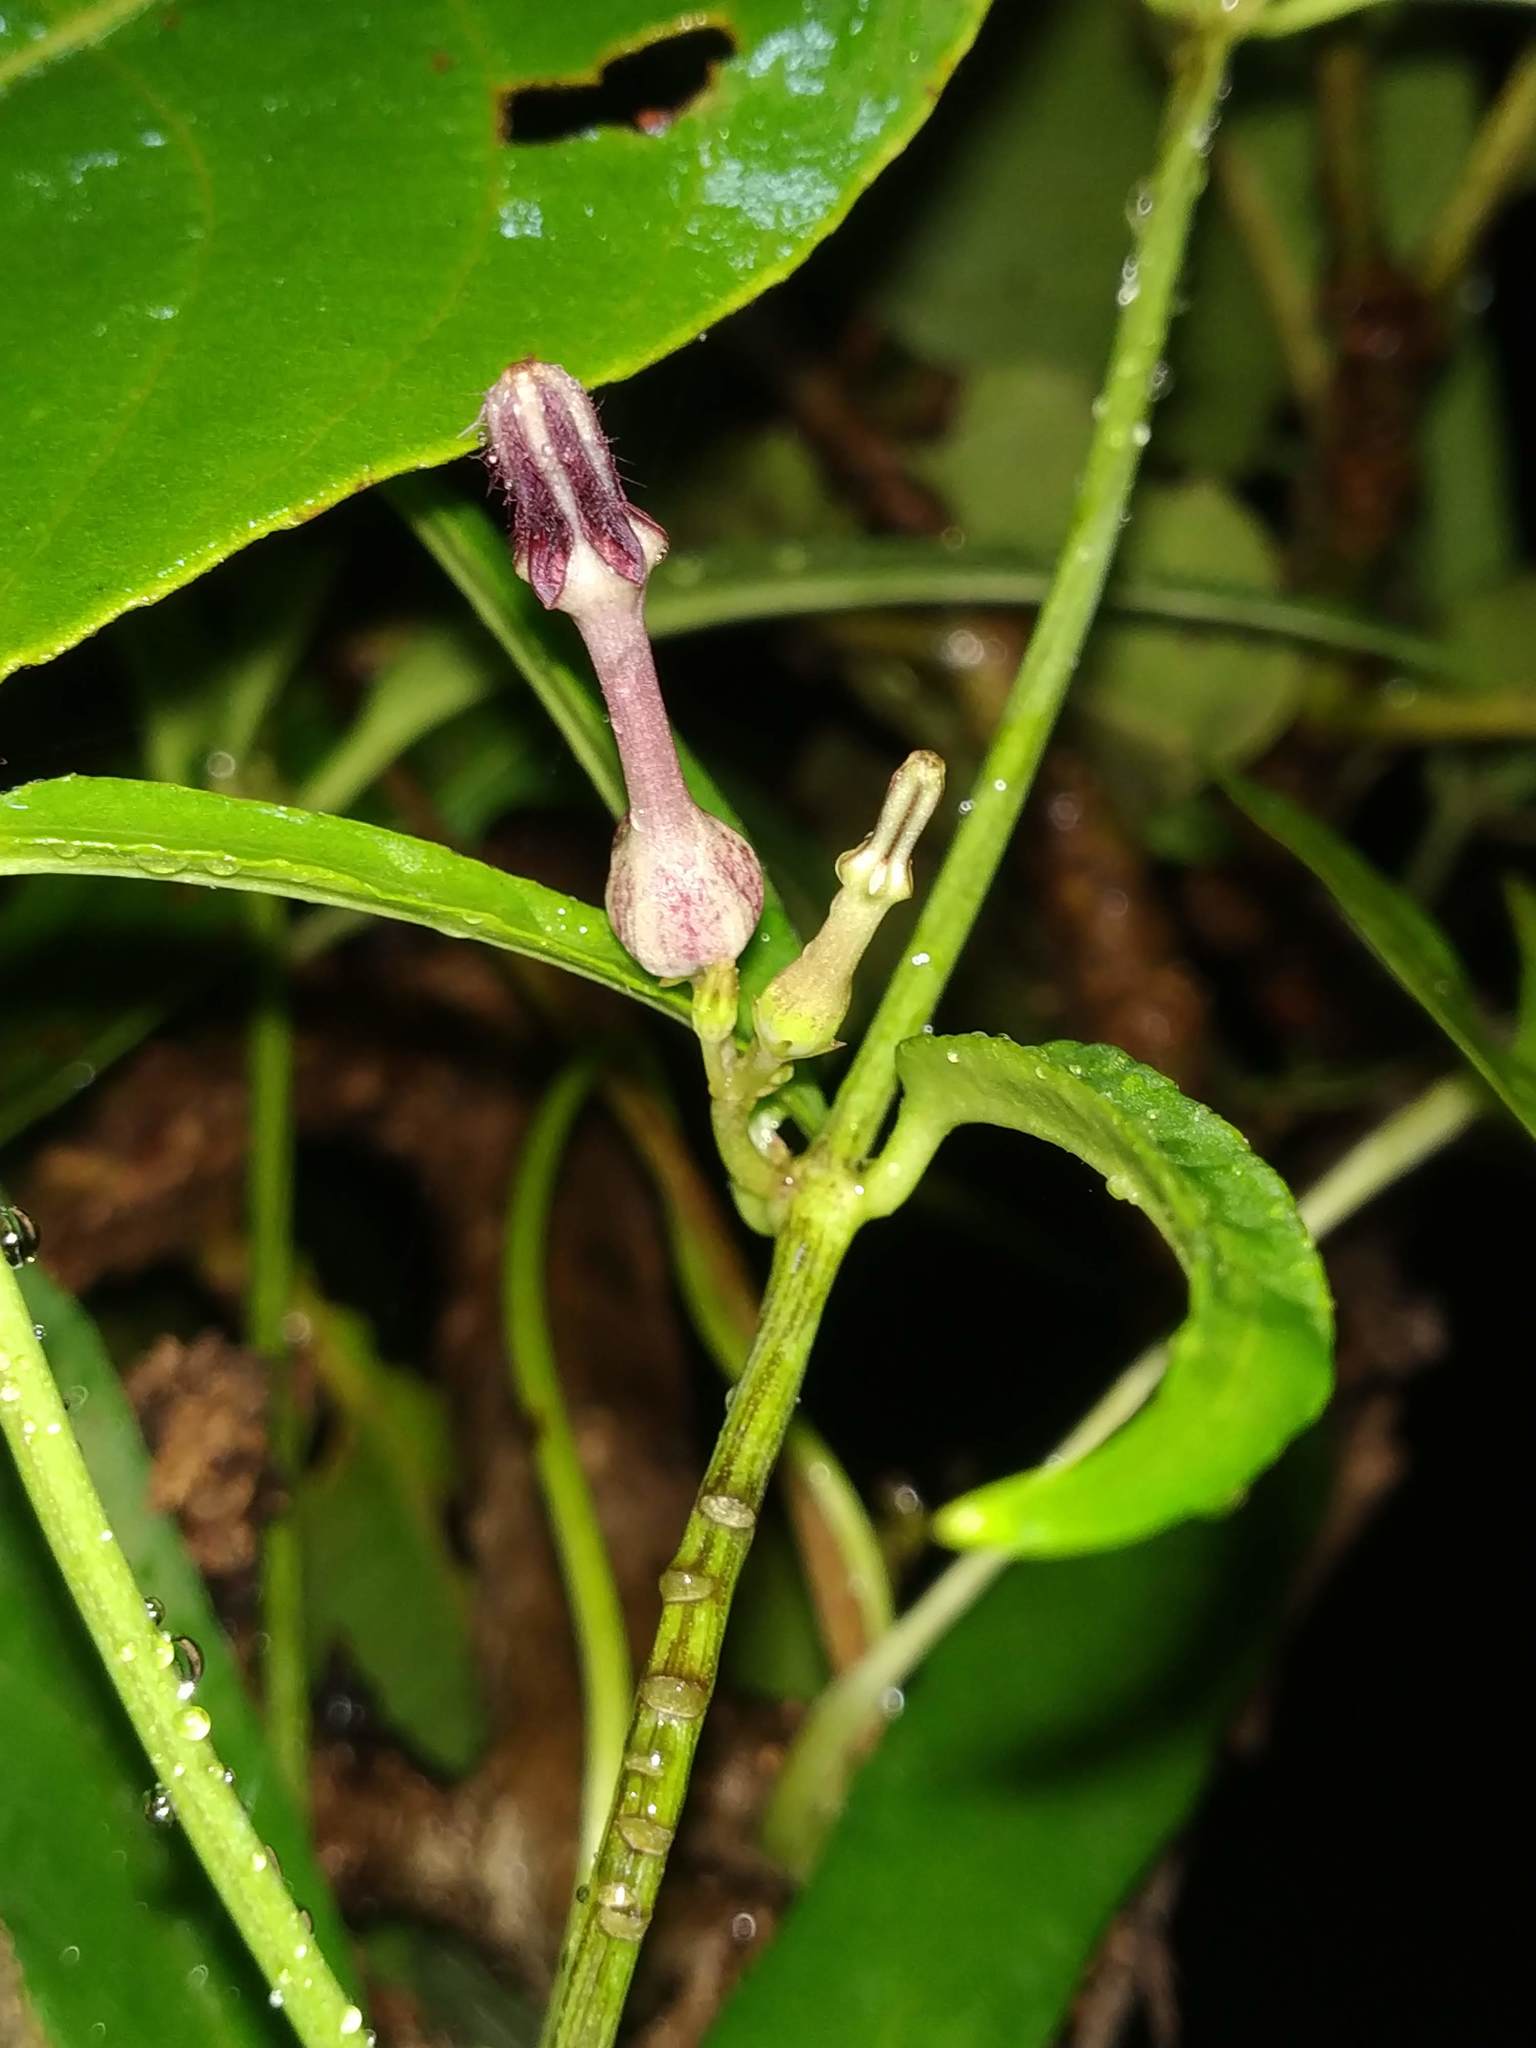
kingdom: Plantae
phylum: Tracheophyta
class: Magnoliopsida
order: Gentianales
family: Apocynaceae
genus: Ceropegia
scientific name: Ceropegia bulbosa
